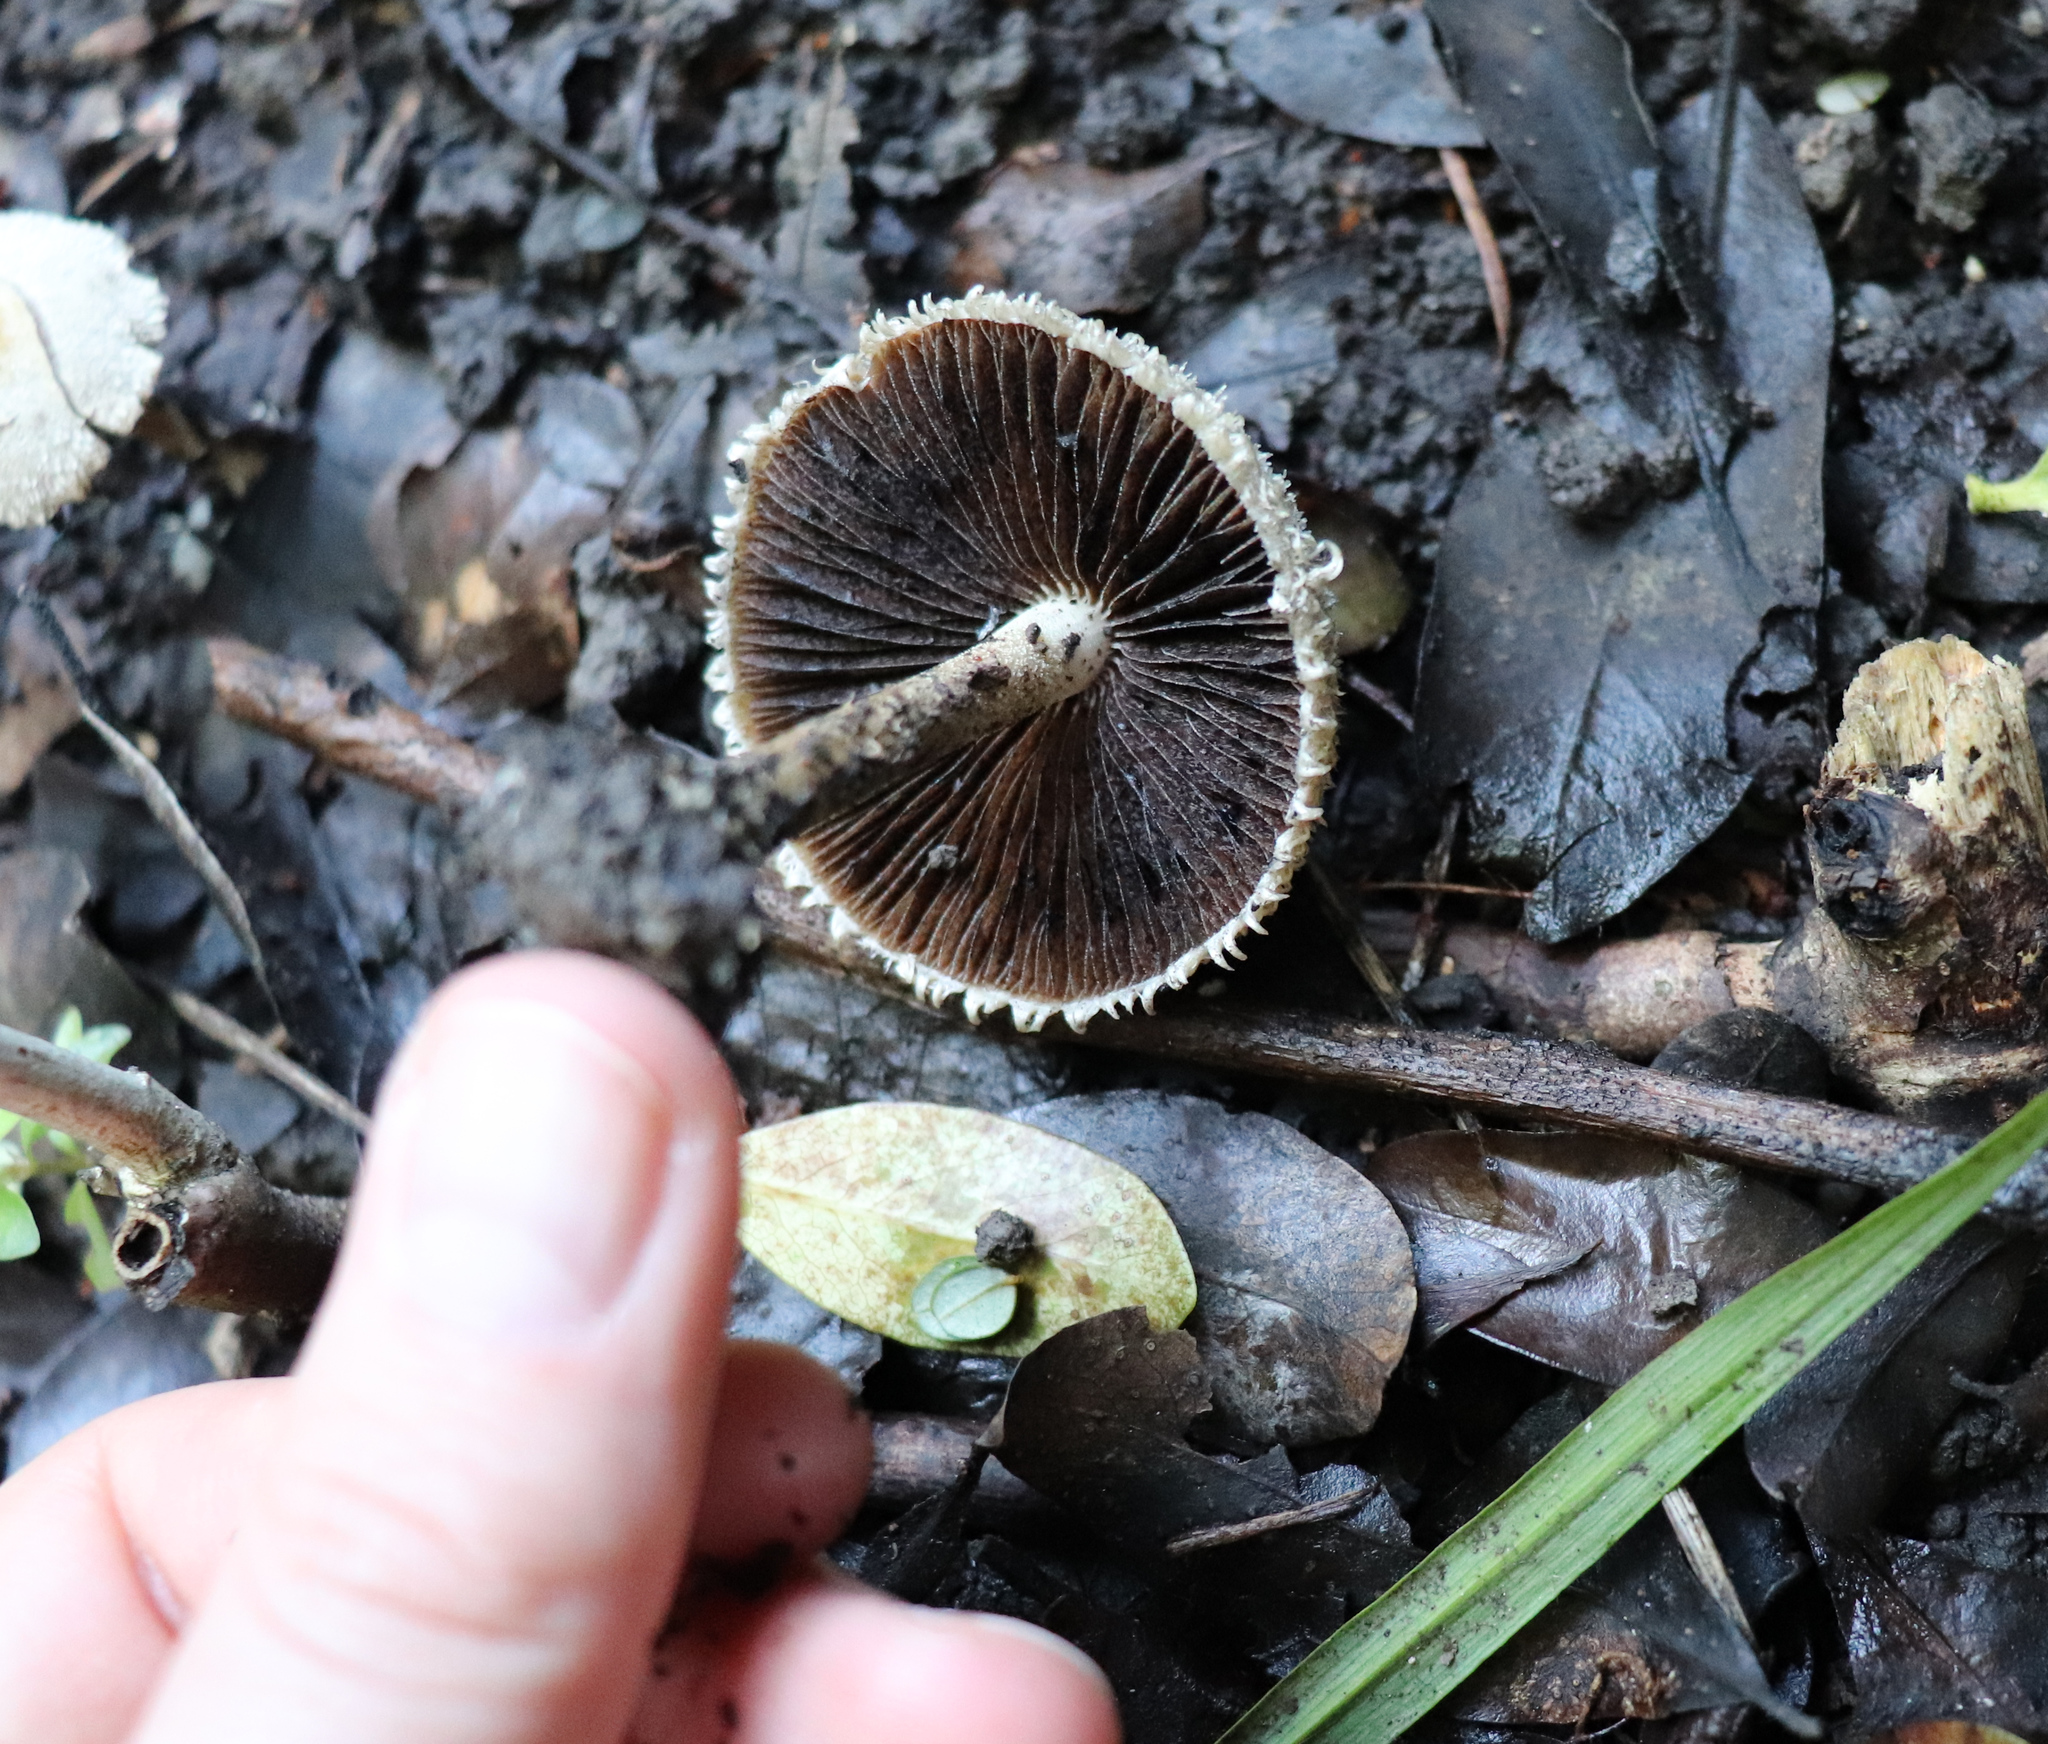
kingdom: Fungi
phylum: Basidiomycota
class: Agaricomycetes
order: Agaricales
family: Psathyrellaceae
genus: Psathyrella
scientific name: Psathyrella asperospora
